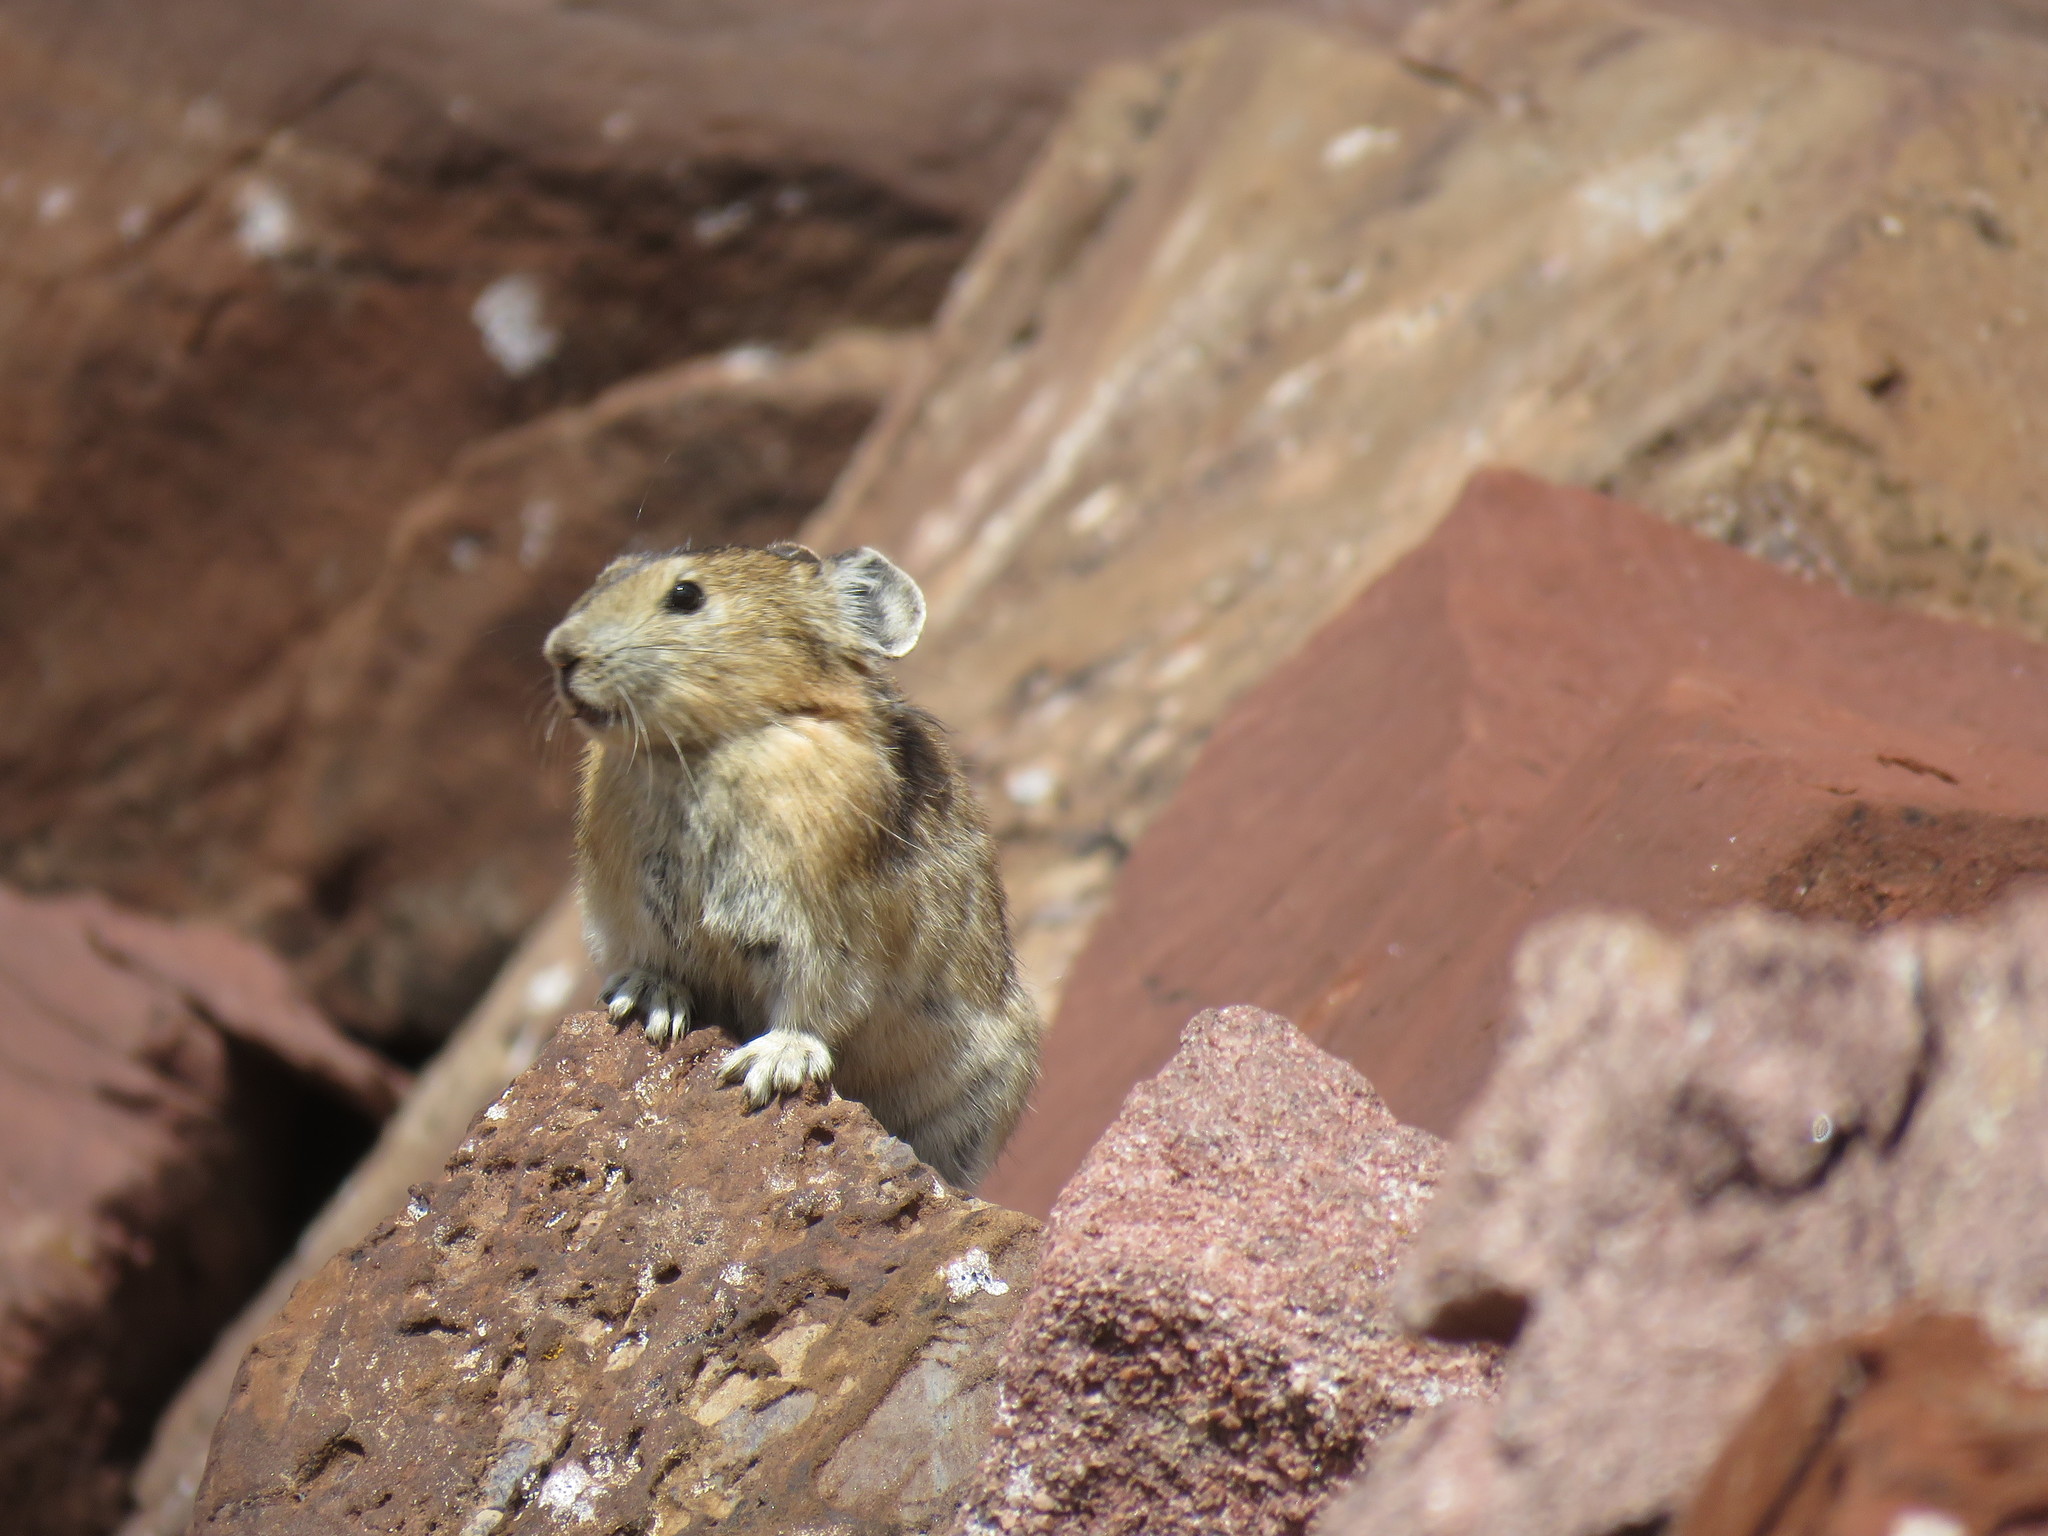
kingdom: Animalia
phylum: Chordata
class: Mammalia
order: Lagomorpha
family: Ochotonidae
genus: Ochotona
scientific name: Ochotona princeps
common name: American pika
